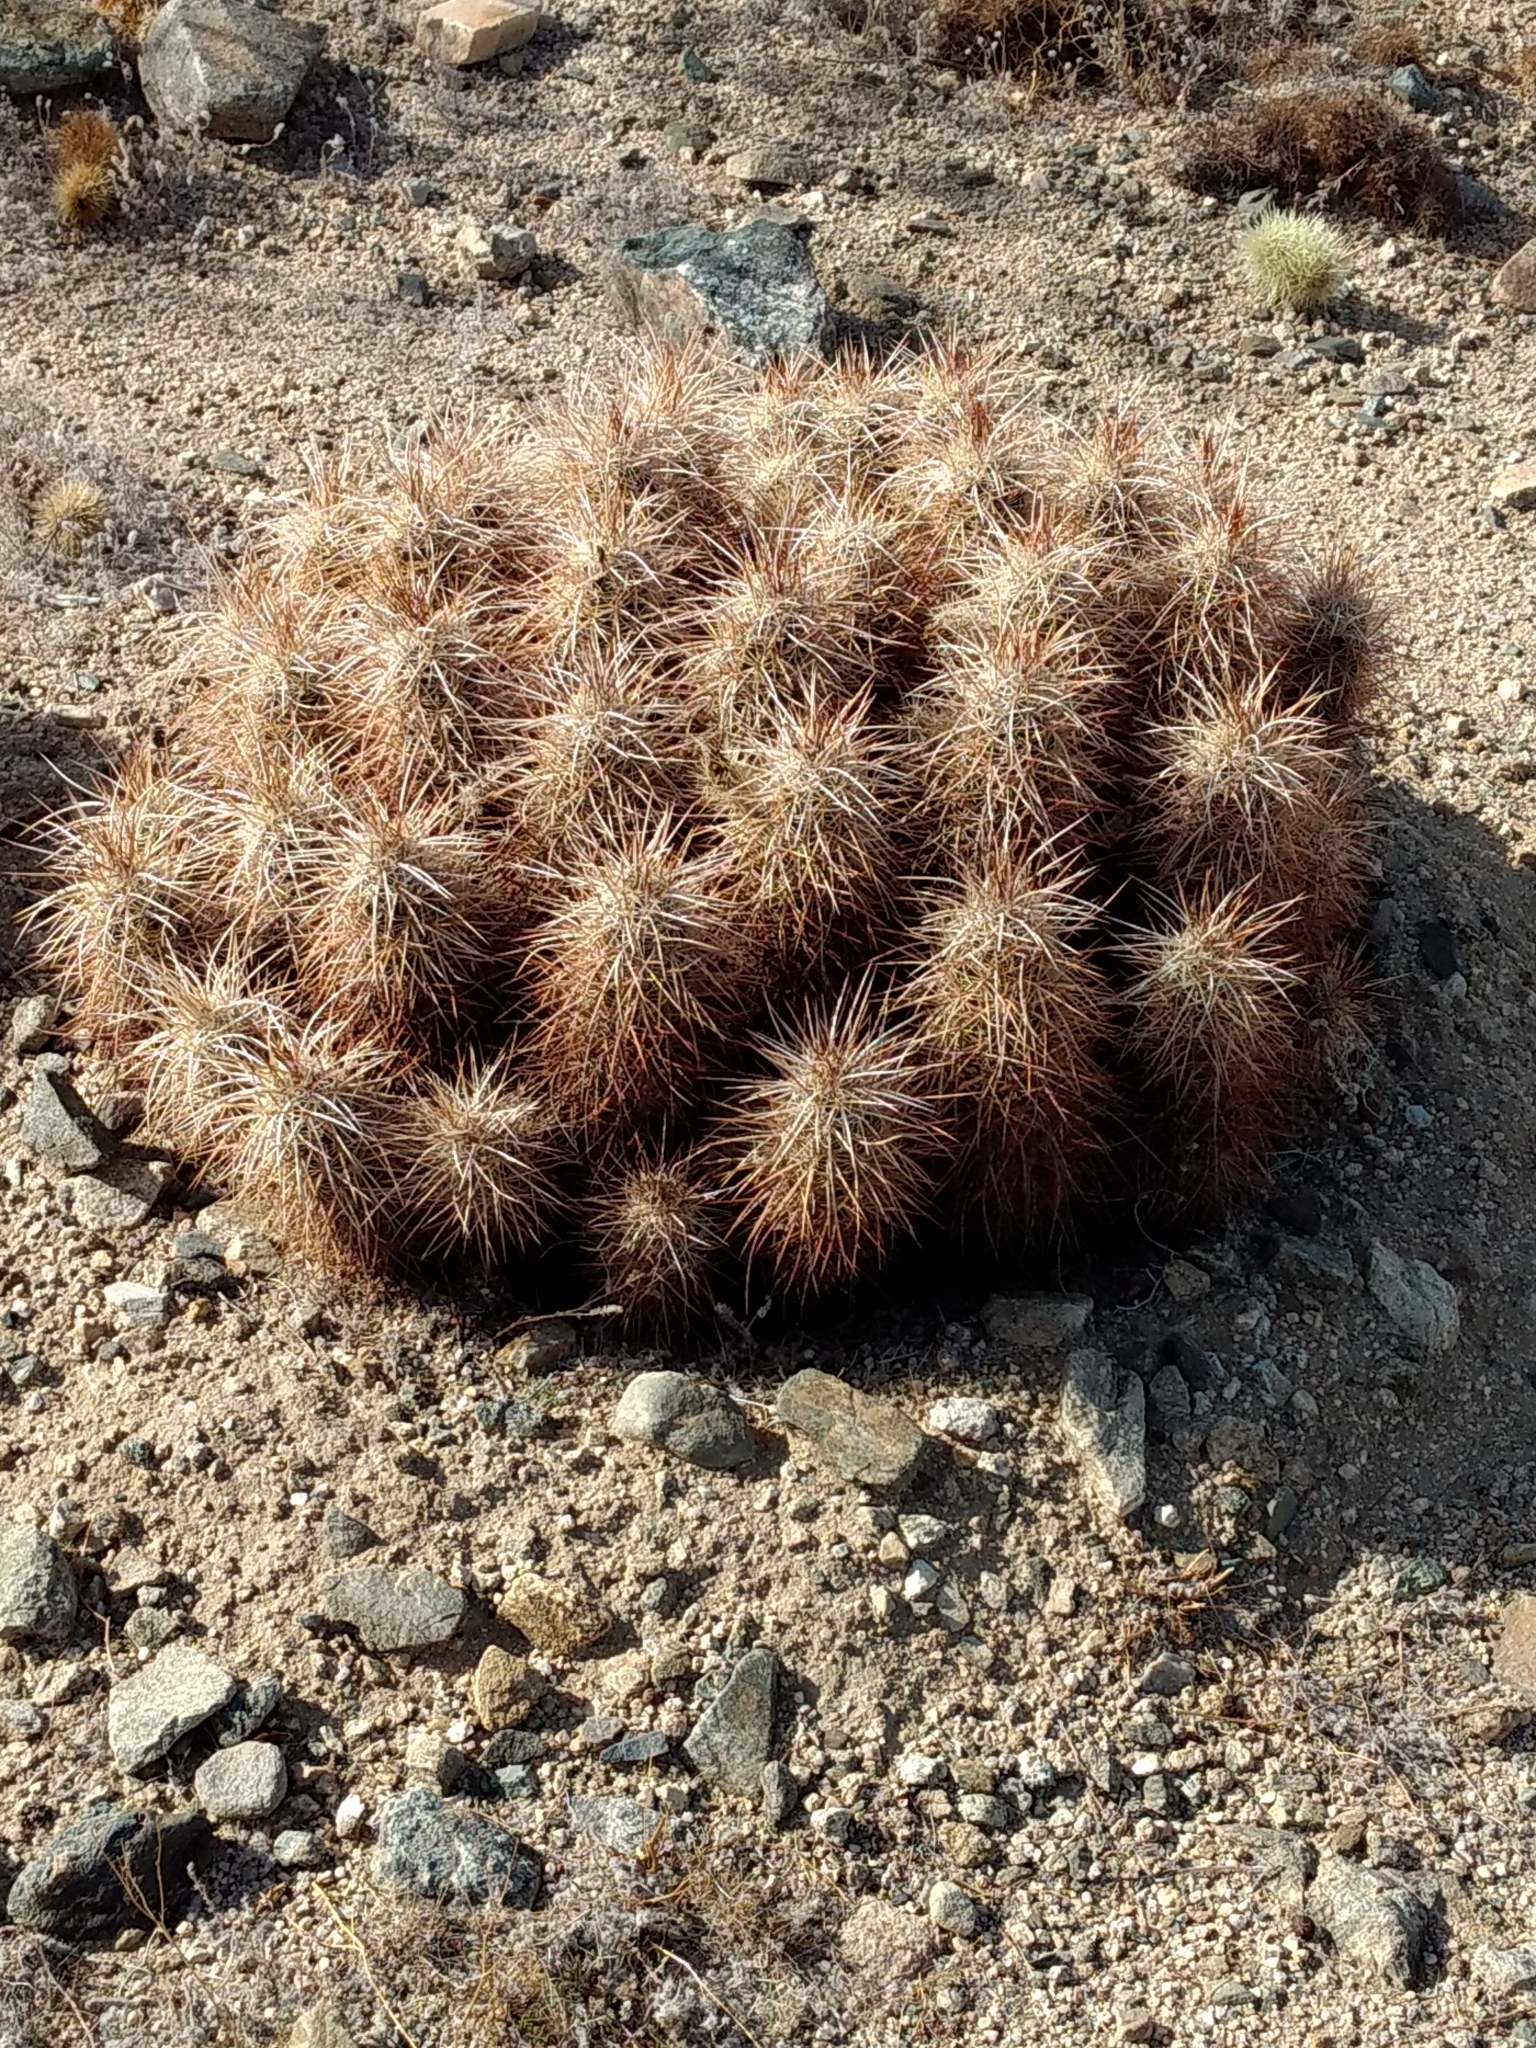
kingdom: Plantae
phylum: Tracheophyta
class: Magnoliopsida
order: Caryophyllales
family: Cactaceae
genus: Echinocereus
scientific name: Echinocereus engelmannii
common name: Engelmann's hedgehog cactus
